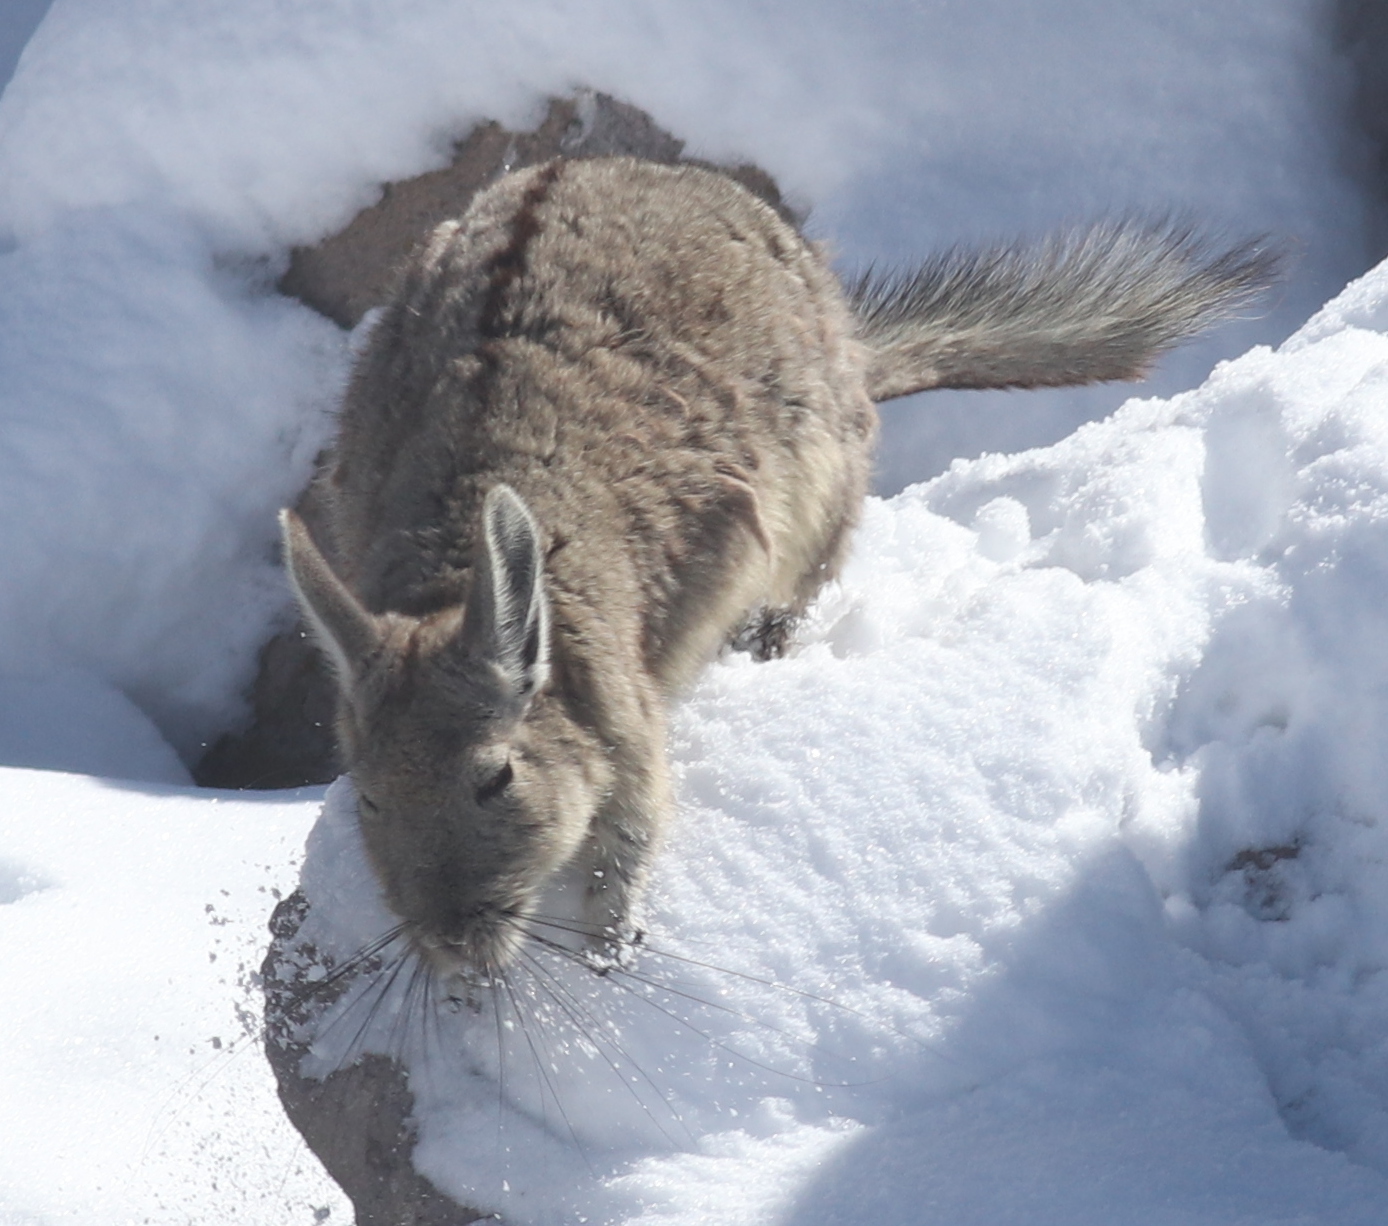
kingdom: Animalia
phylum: Chordata
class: Mammalia
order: Rodentia
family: Chinchillidae
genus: Lagidium
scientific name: Lagidium viscacia
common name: Southern viscacha
